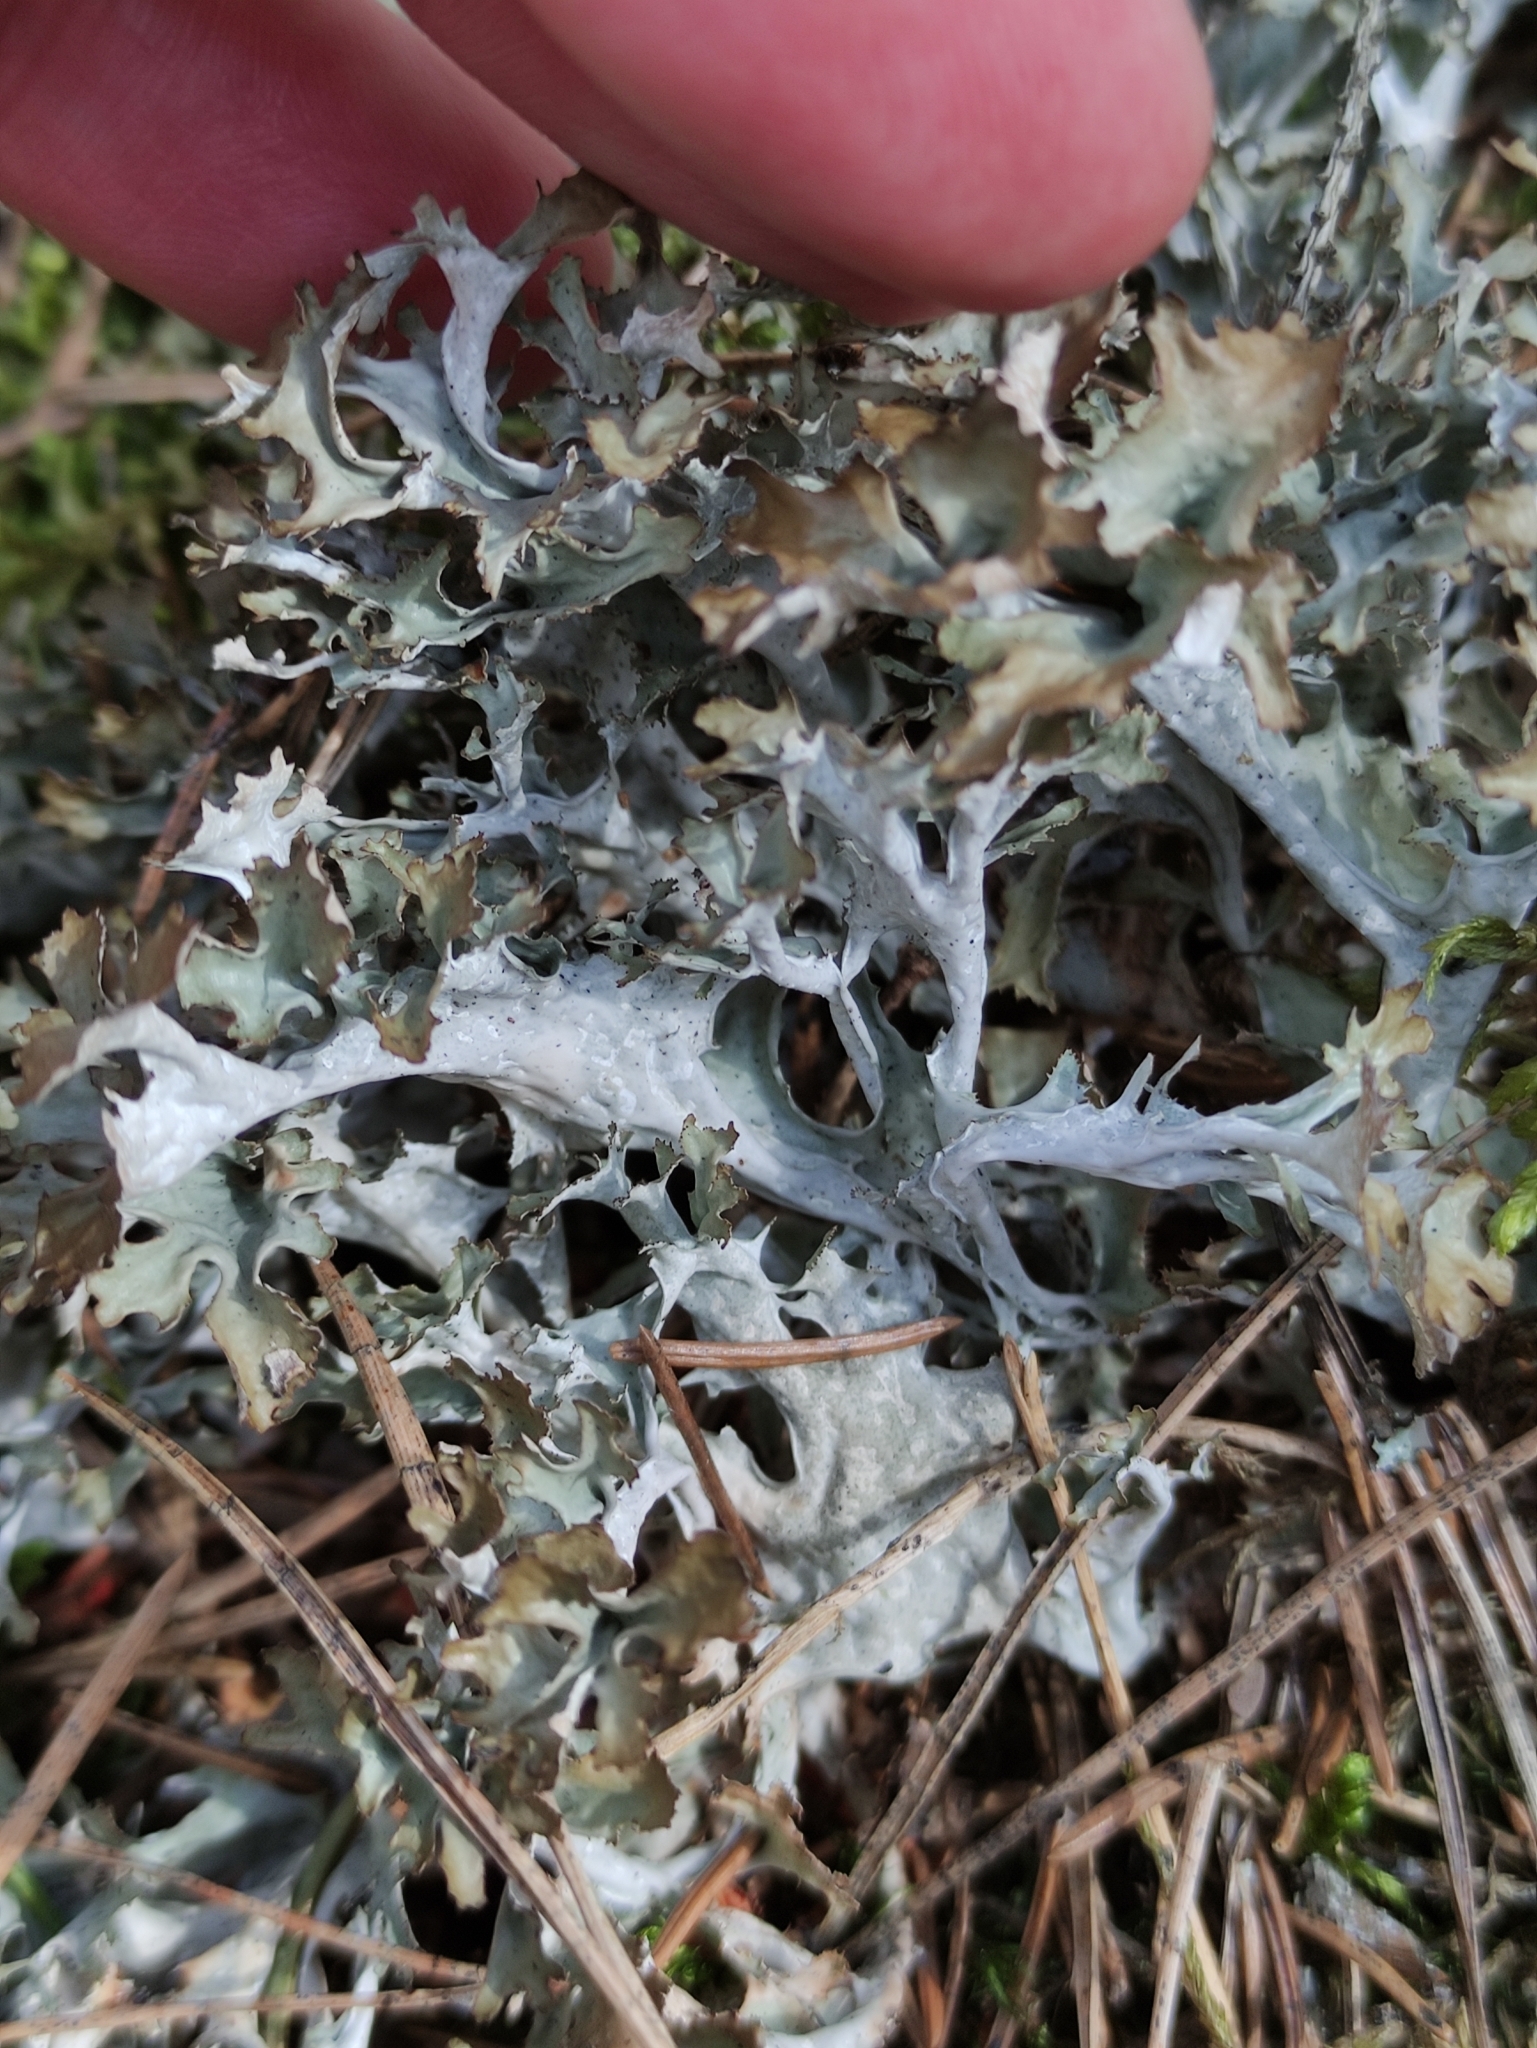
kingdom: Fungi
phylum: Ascomycota
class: Lecanoromycetes
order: Lecanorales
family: Parmeliaceae
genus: Cetraria
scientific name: Cetraria islandica
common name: Iceland lichen
